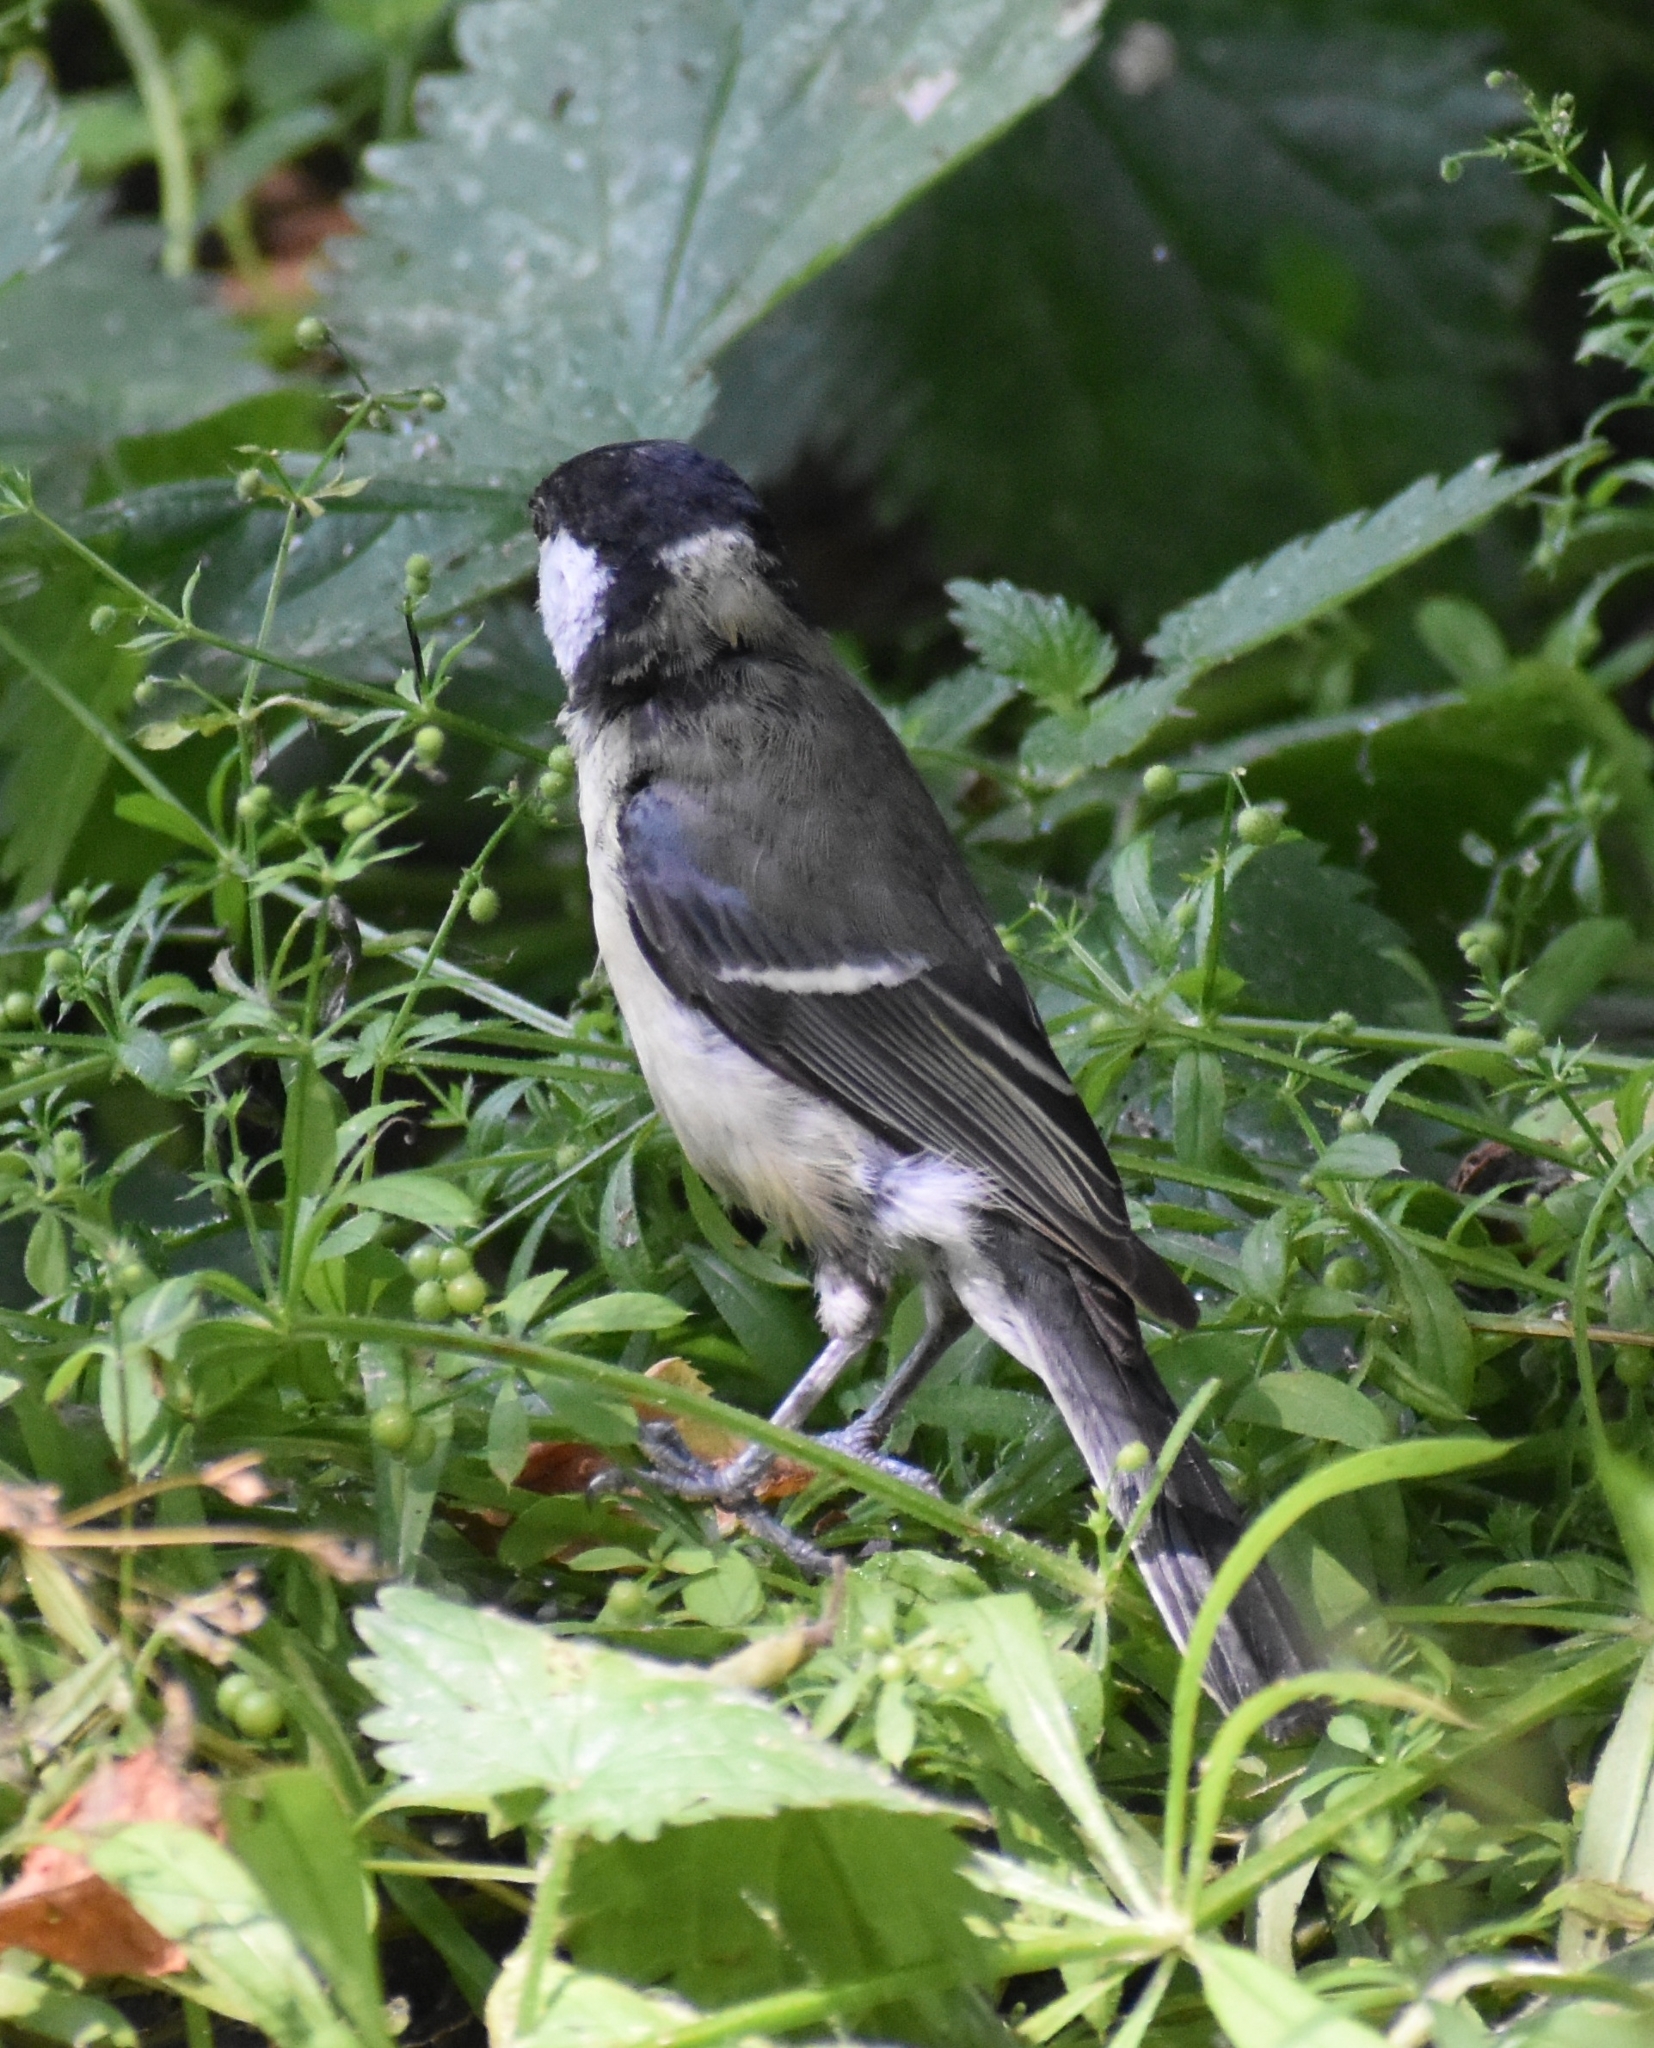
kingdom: Animalia
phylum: Chordata
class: Aves
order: Passeriformes
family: Paridae
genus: Parus
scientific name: Parus major
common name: Great tit
